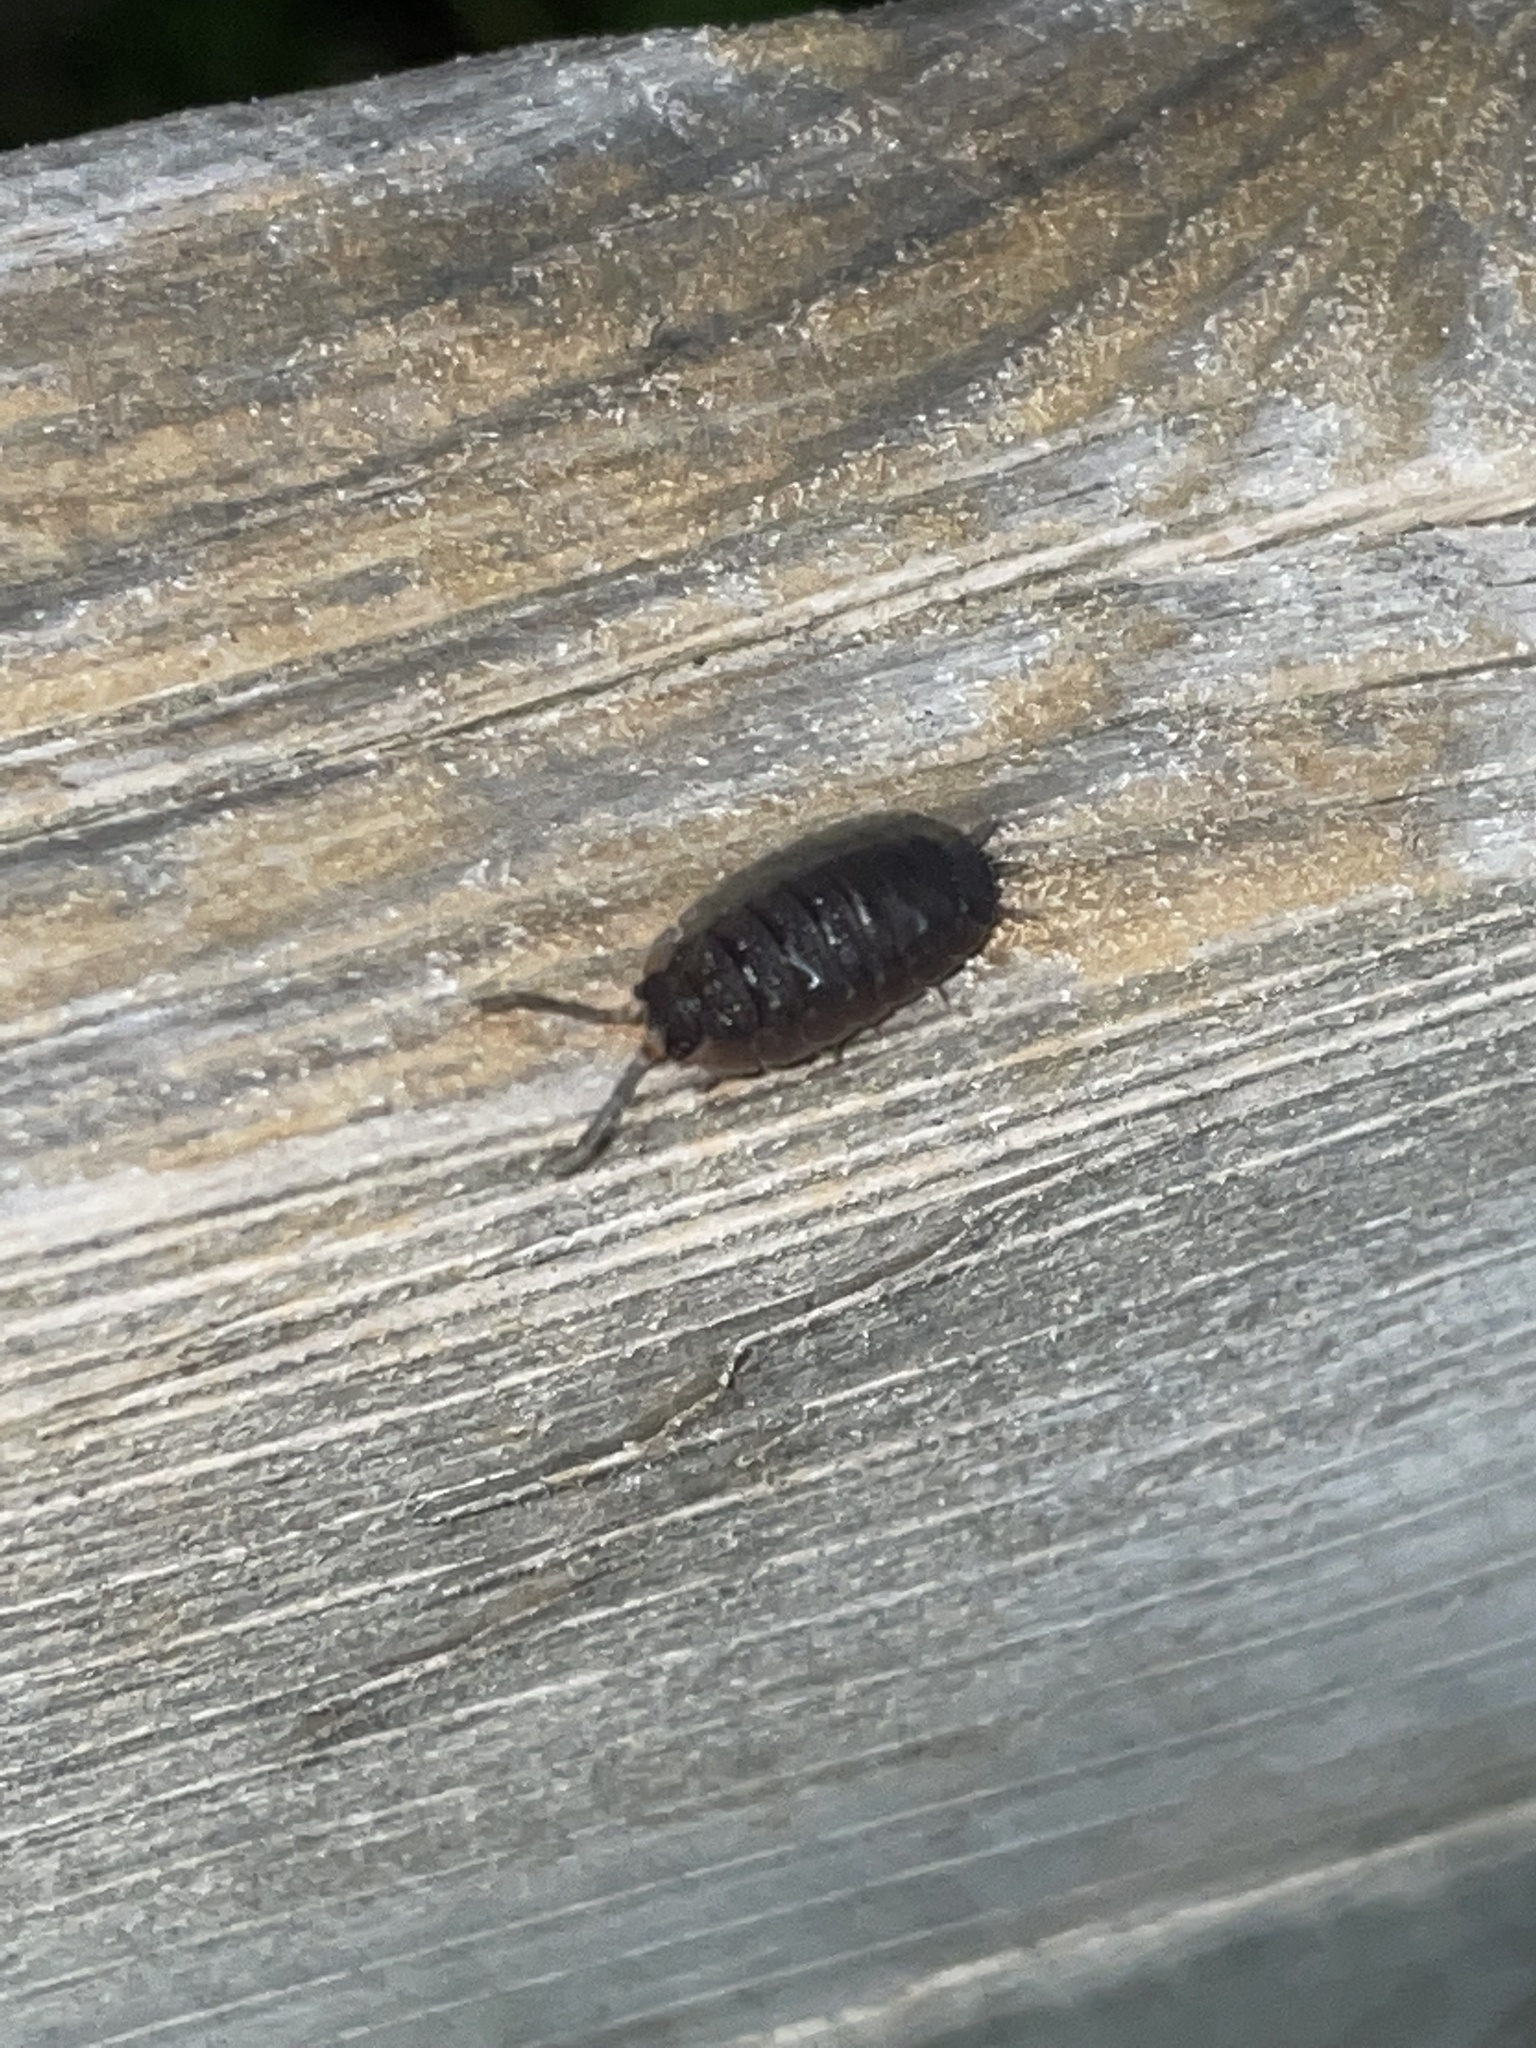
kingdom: Animalia
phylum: Arthropoda
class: Malacostraca
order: Isopoda
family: Porcellionidae
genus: Porcellio
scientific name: Porcellio scaber
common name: Common rough woodlouse
